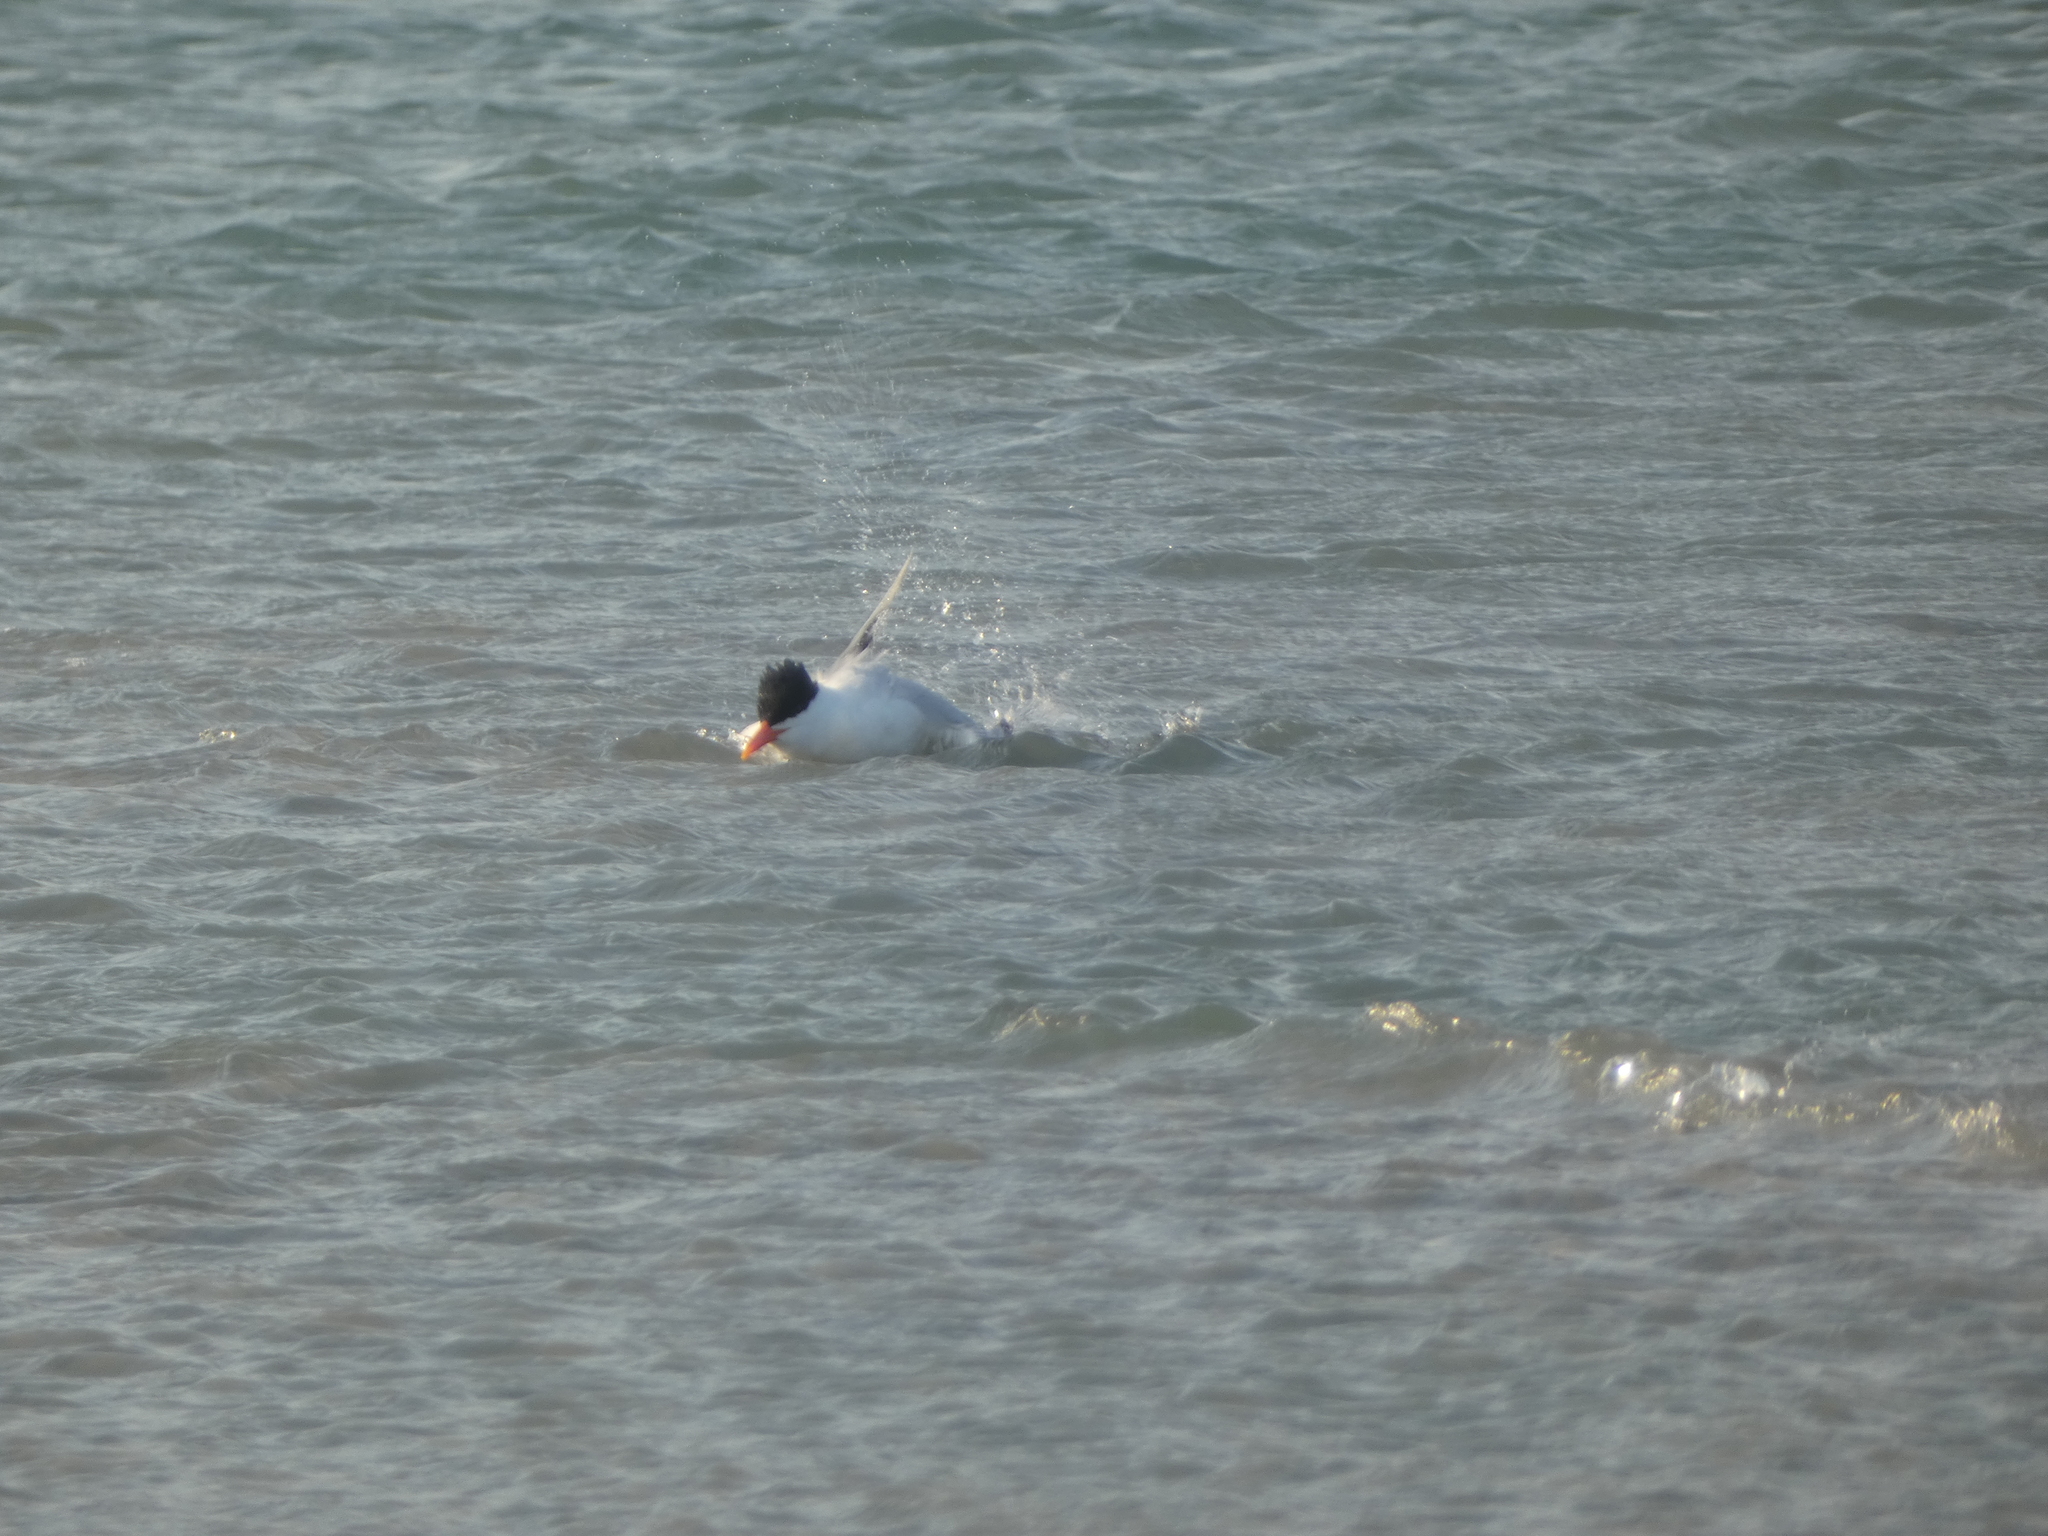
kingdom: Animalia
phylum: Chordata
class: Aves
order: Charadriiformes
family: Laridae
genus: Thalasseus
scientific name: Thalasseus maximus
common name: Royal tern
